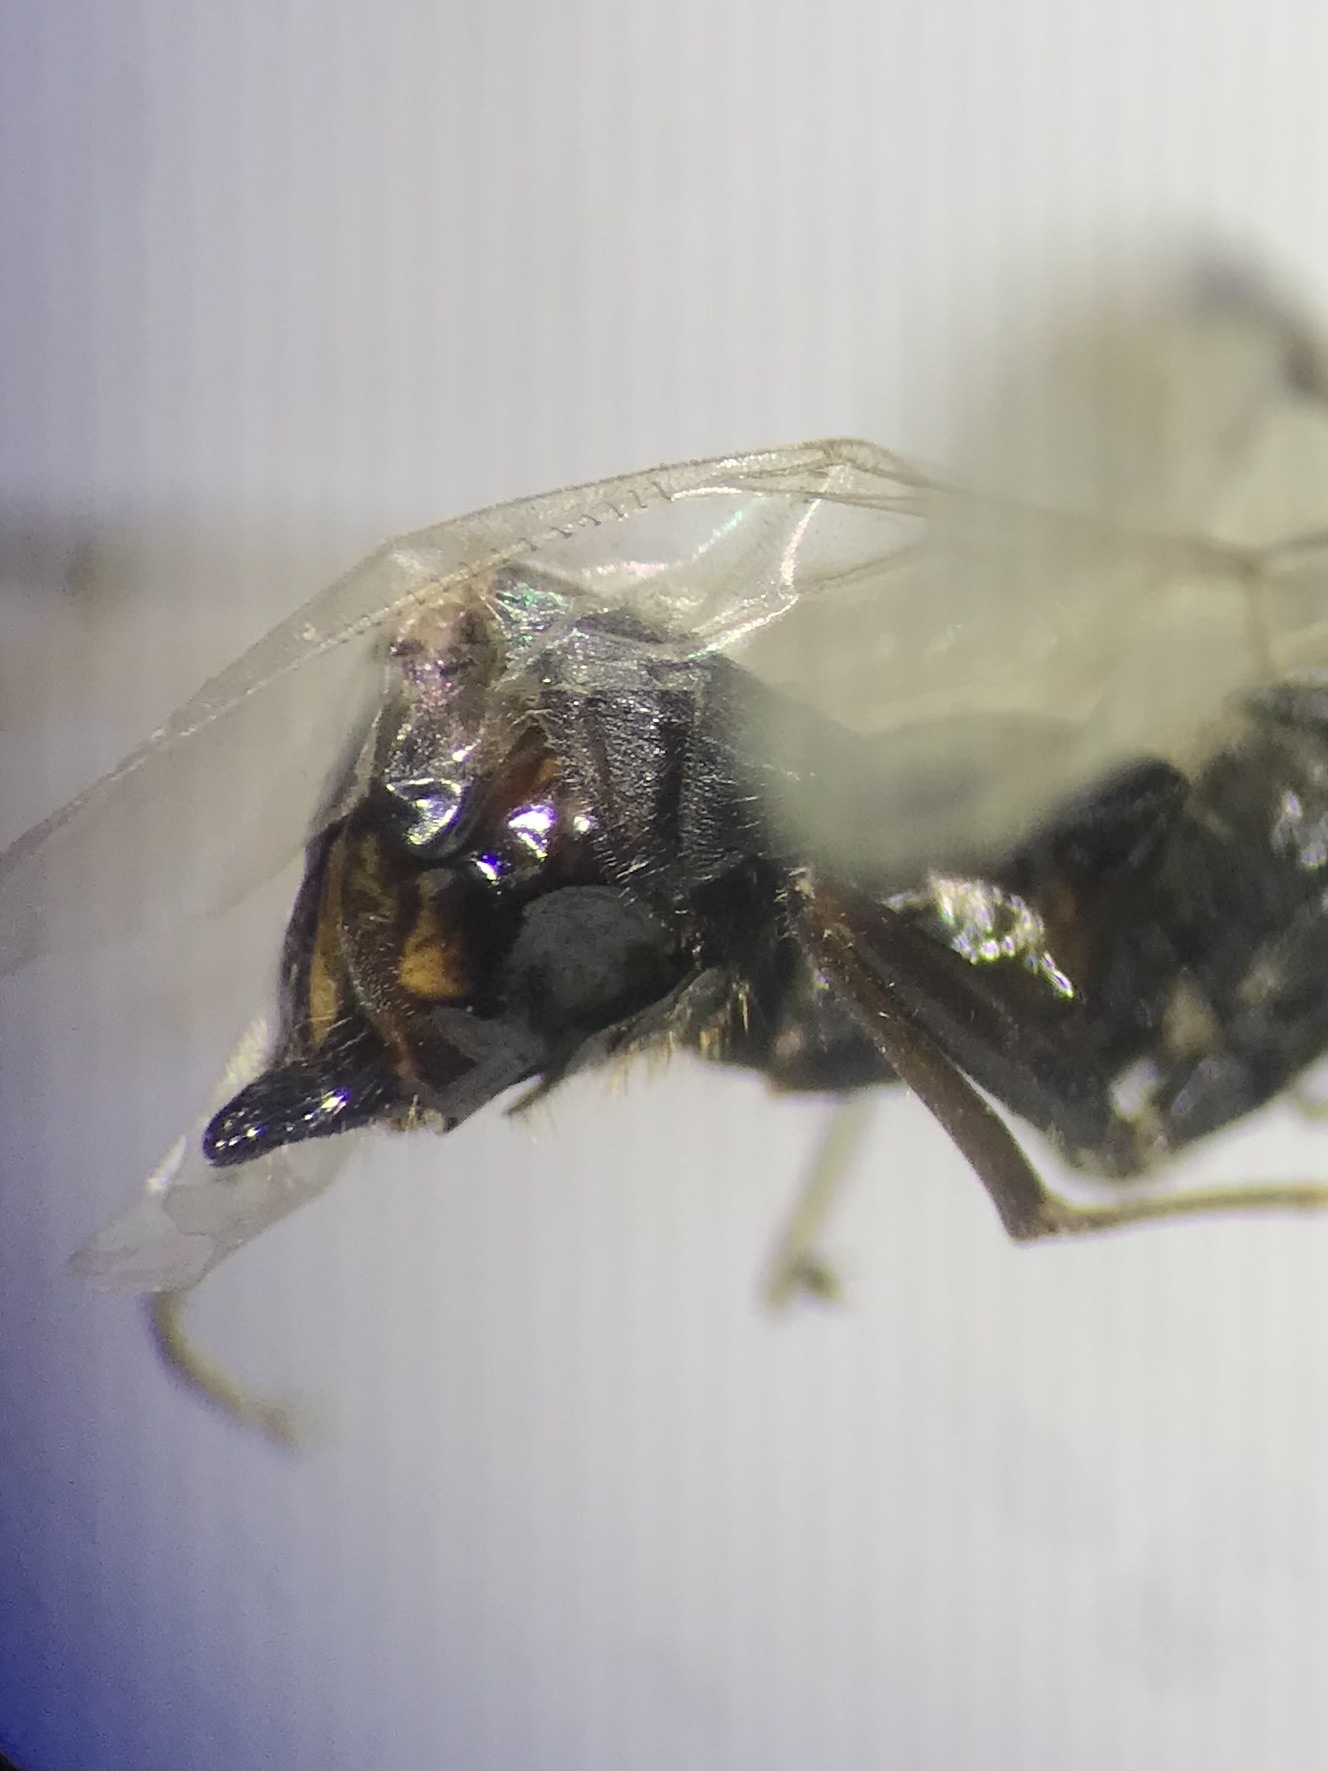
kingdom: Animalia
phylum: Arthropoda
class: Insecta
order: Hymenoptera
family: Formicidae
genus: Liometopum
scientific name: Liometopum occidentale
